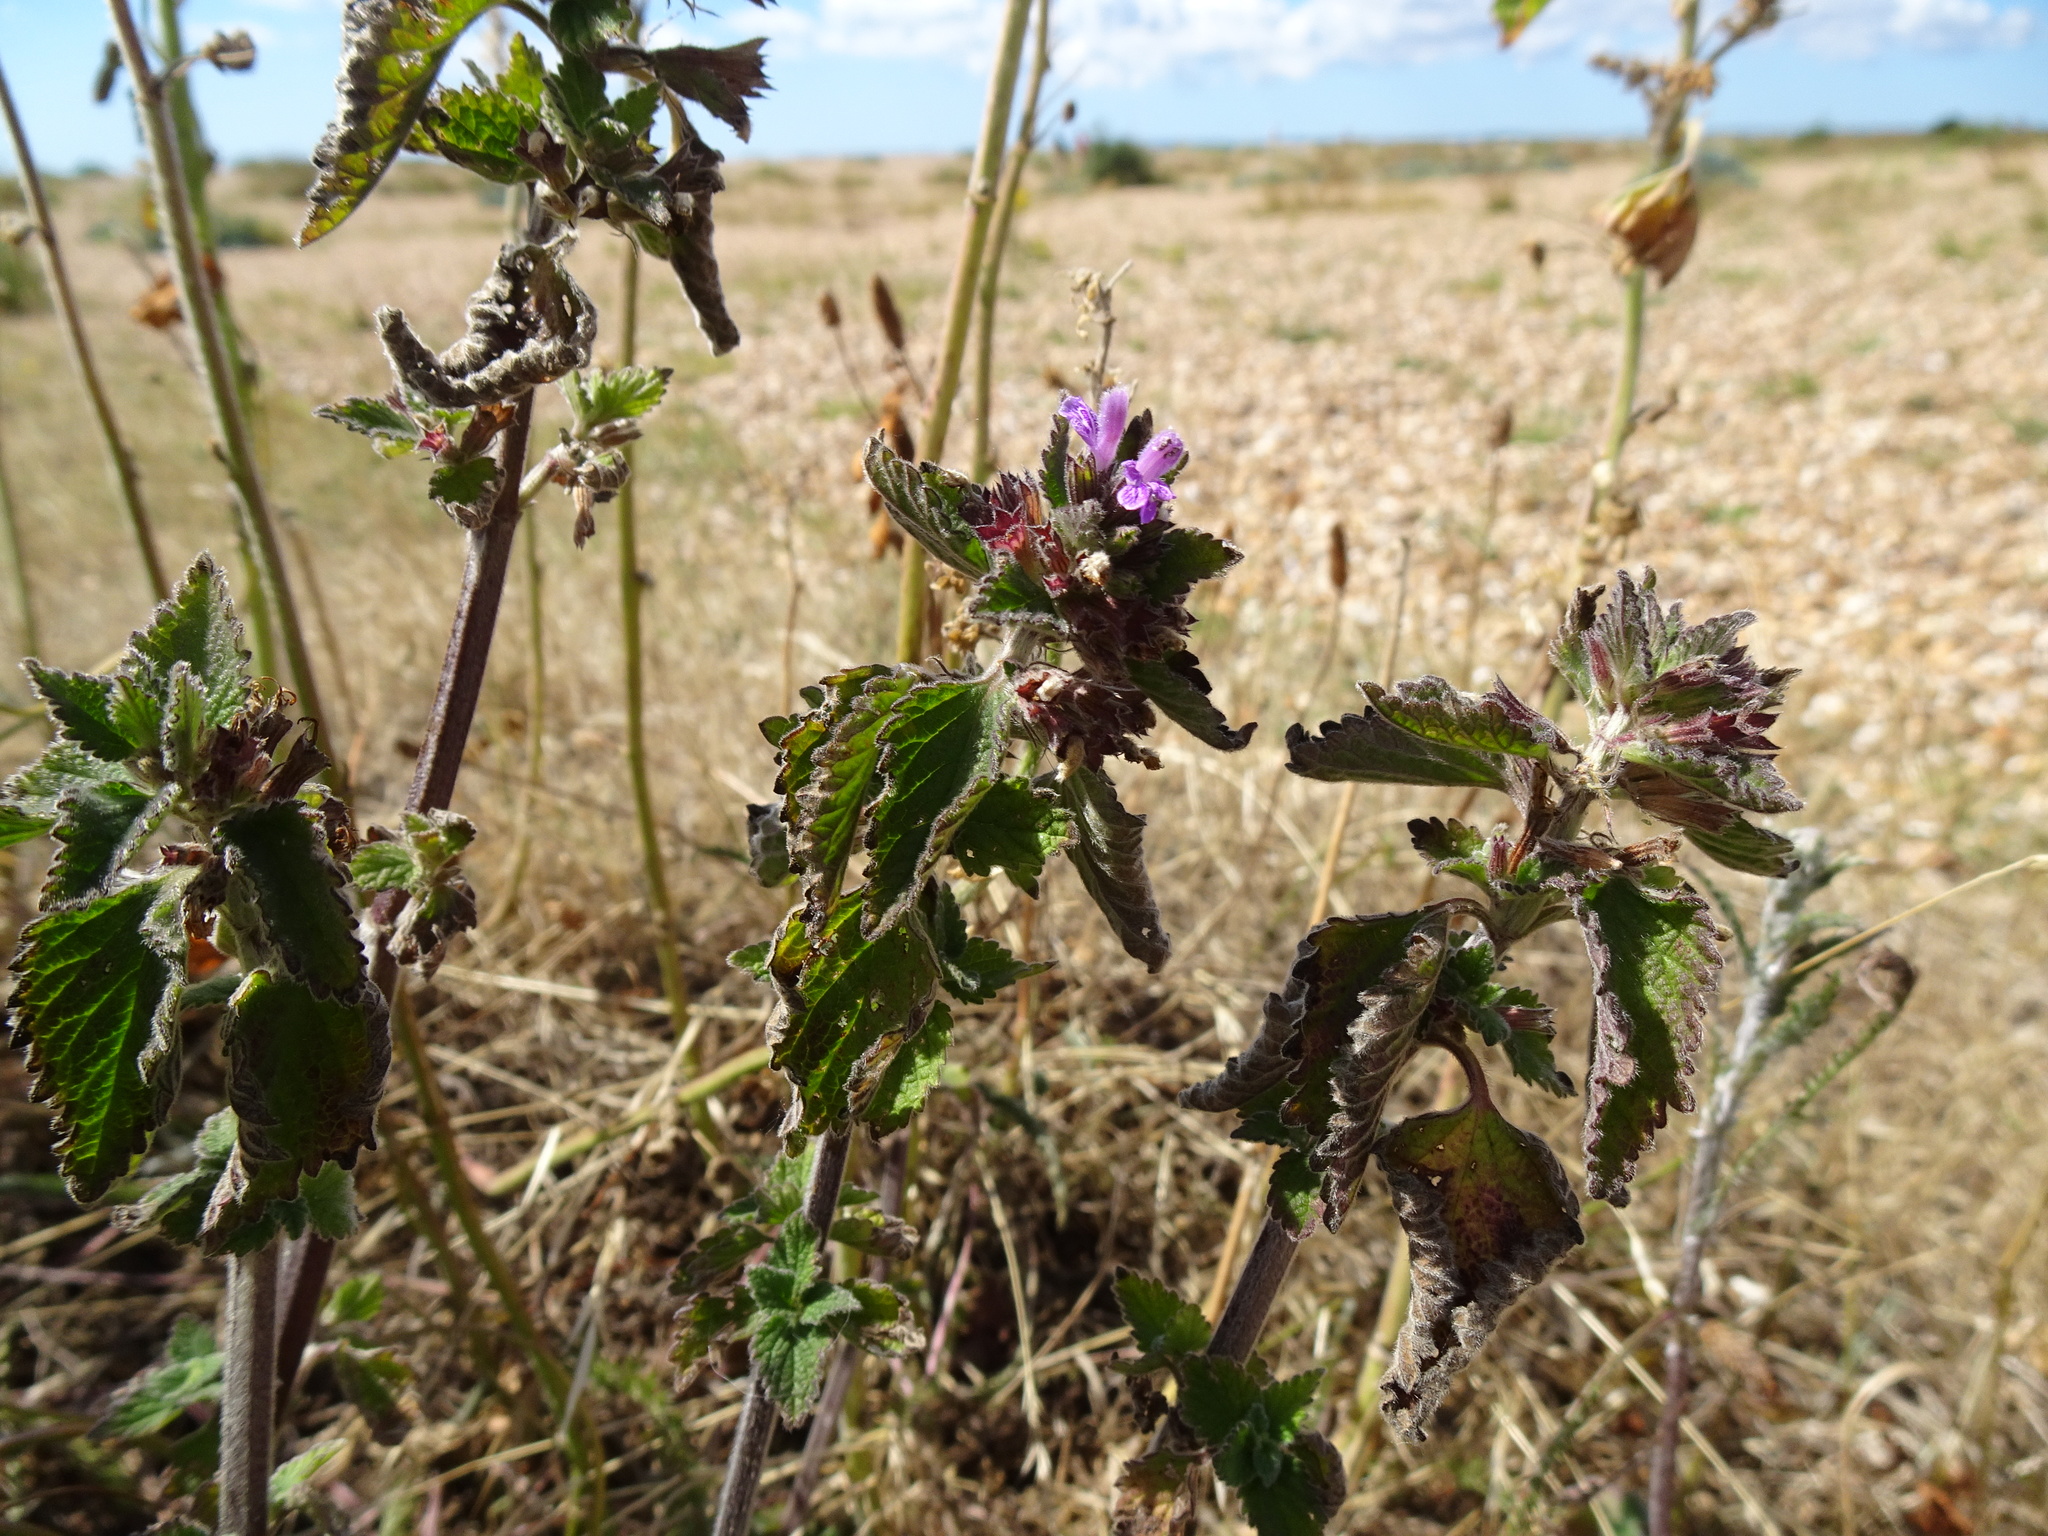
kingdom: Plantae
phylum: Tracheophyta
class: Magnoliopsida
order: Lamiales
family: Lamiaceae
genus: Ballota
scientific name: Ballota nigra
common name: Black horehound
